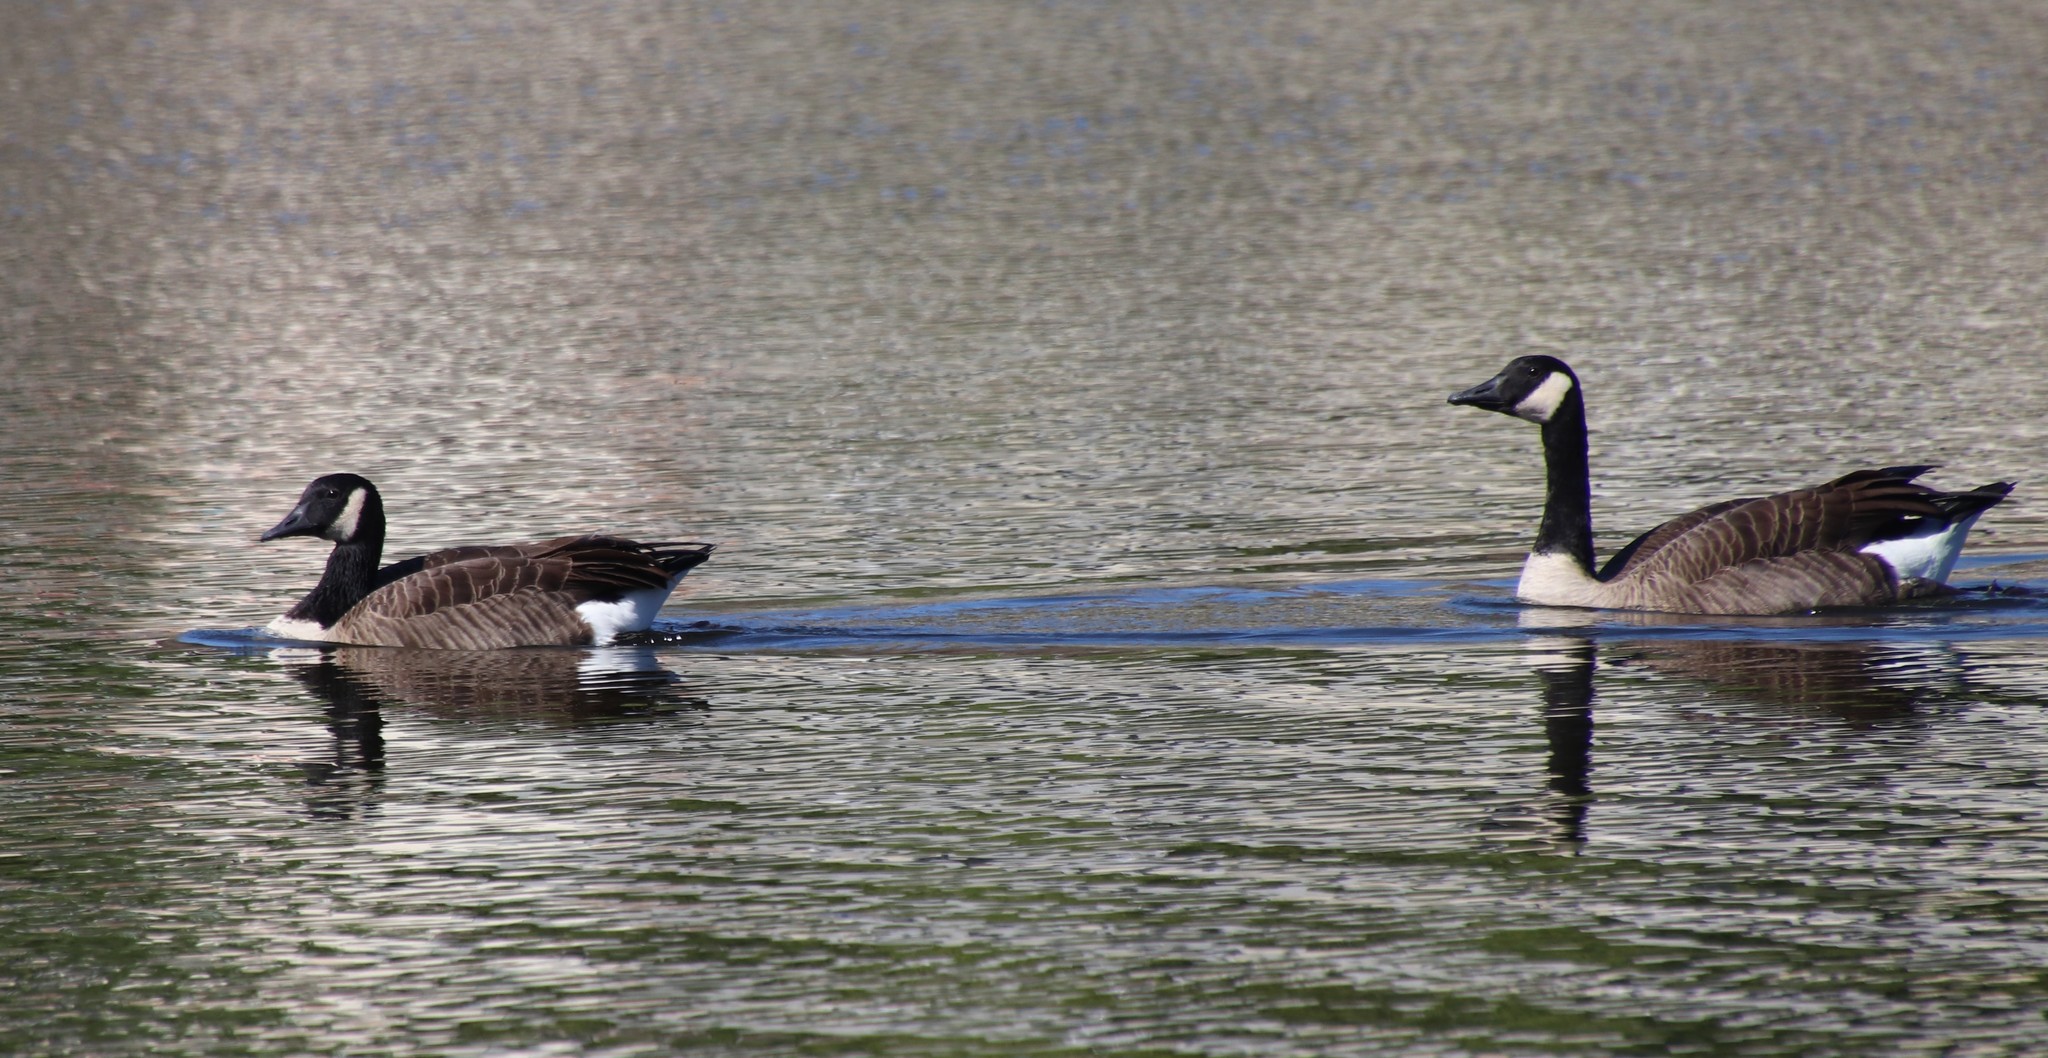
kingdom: Animalia
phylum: Chordata
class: Aves
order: Anseriformes
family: Anatidae
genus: Branta
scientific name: Branta canadensis
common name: Canada goose
